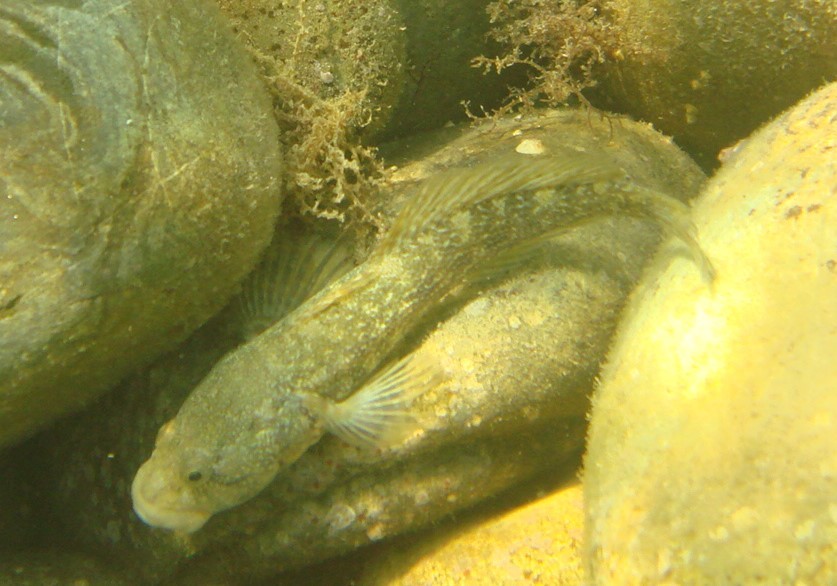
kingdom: Animalia
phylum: Chordata
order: Perciformes
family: Gobiidae
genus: Ponticola
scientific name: Ponticola platyrostris
